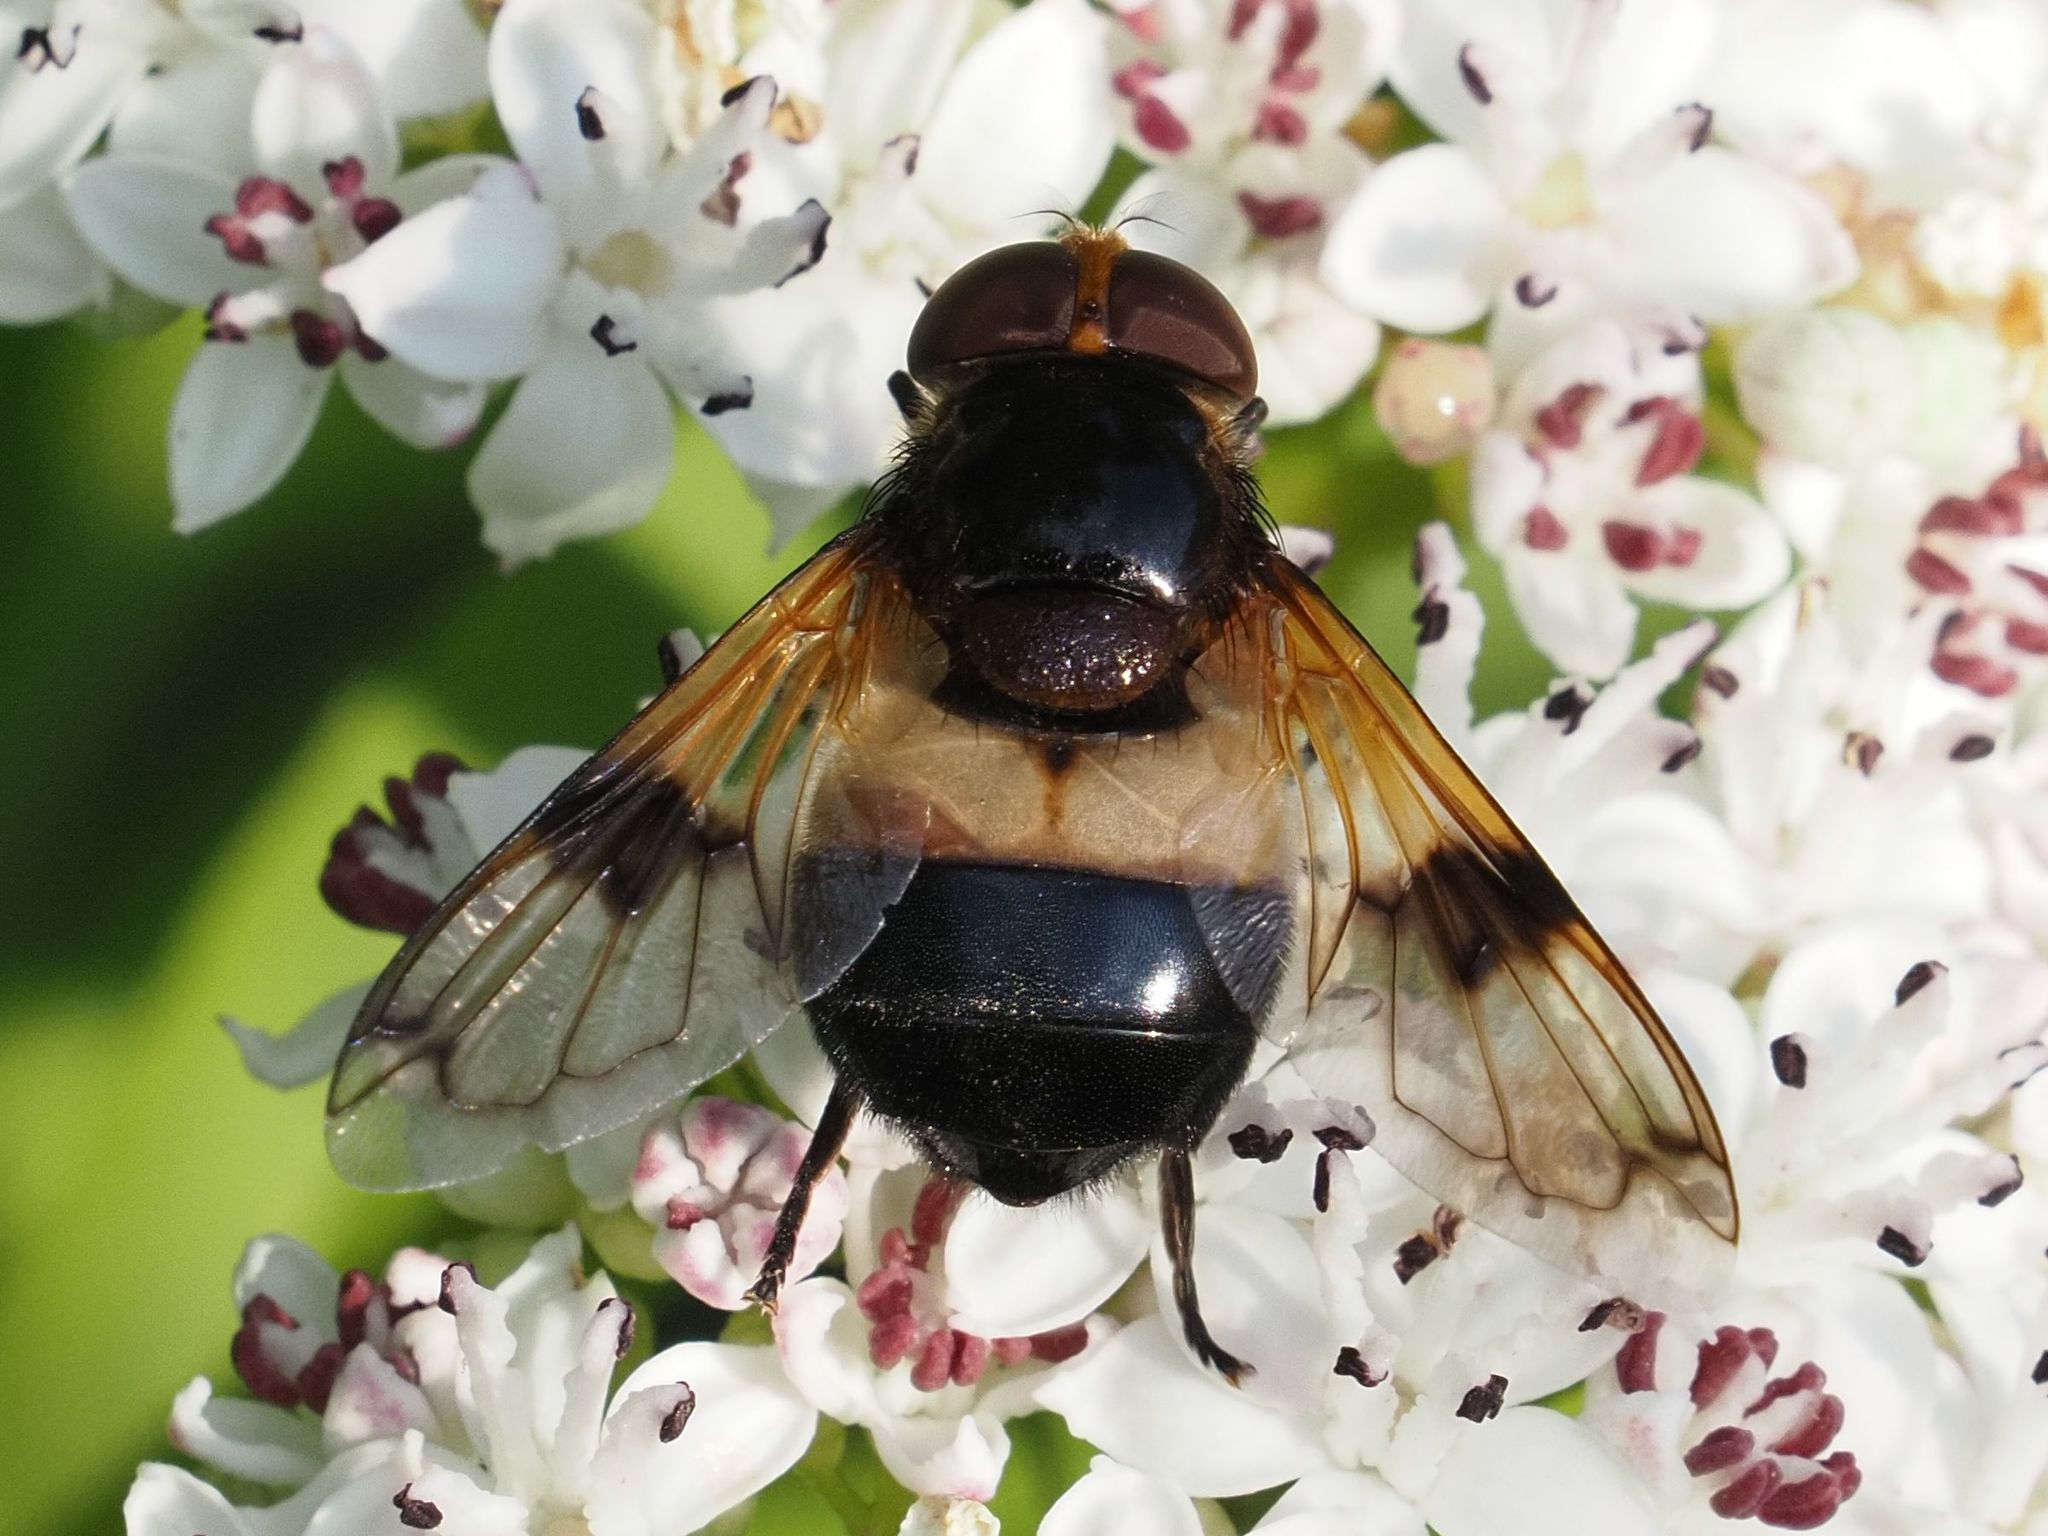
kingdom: Animalia
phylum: Arthropoda
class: Insecta
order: Diptera
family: Syrphidae
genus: Volucella
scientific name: Volucella pellucens
